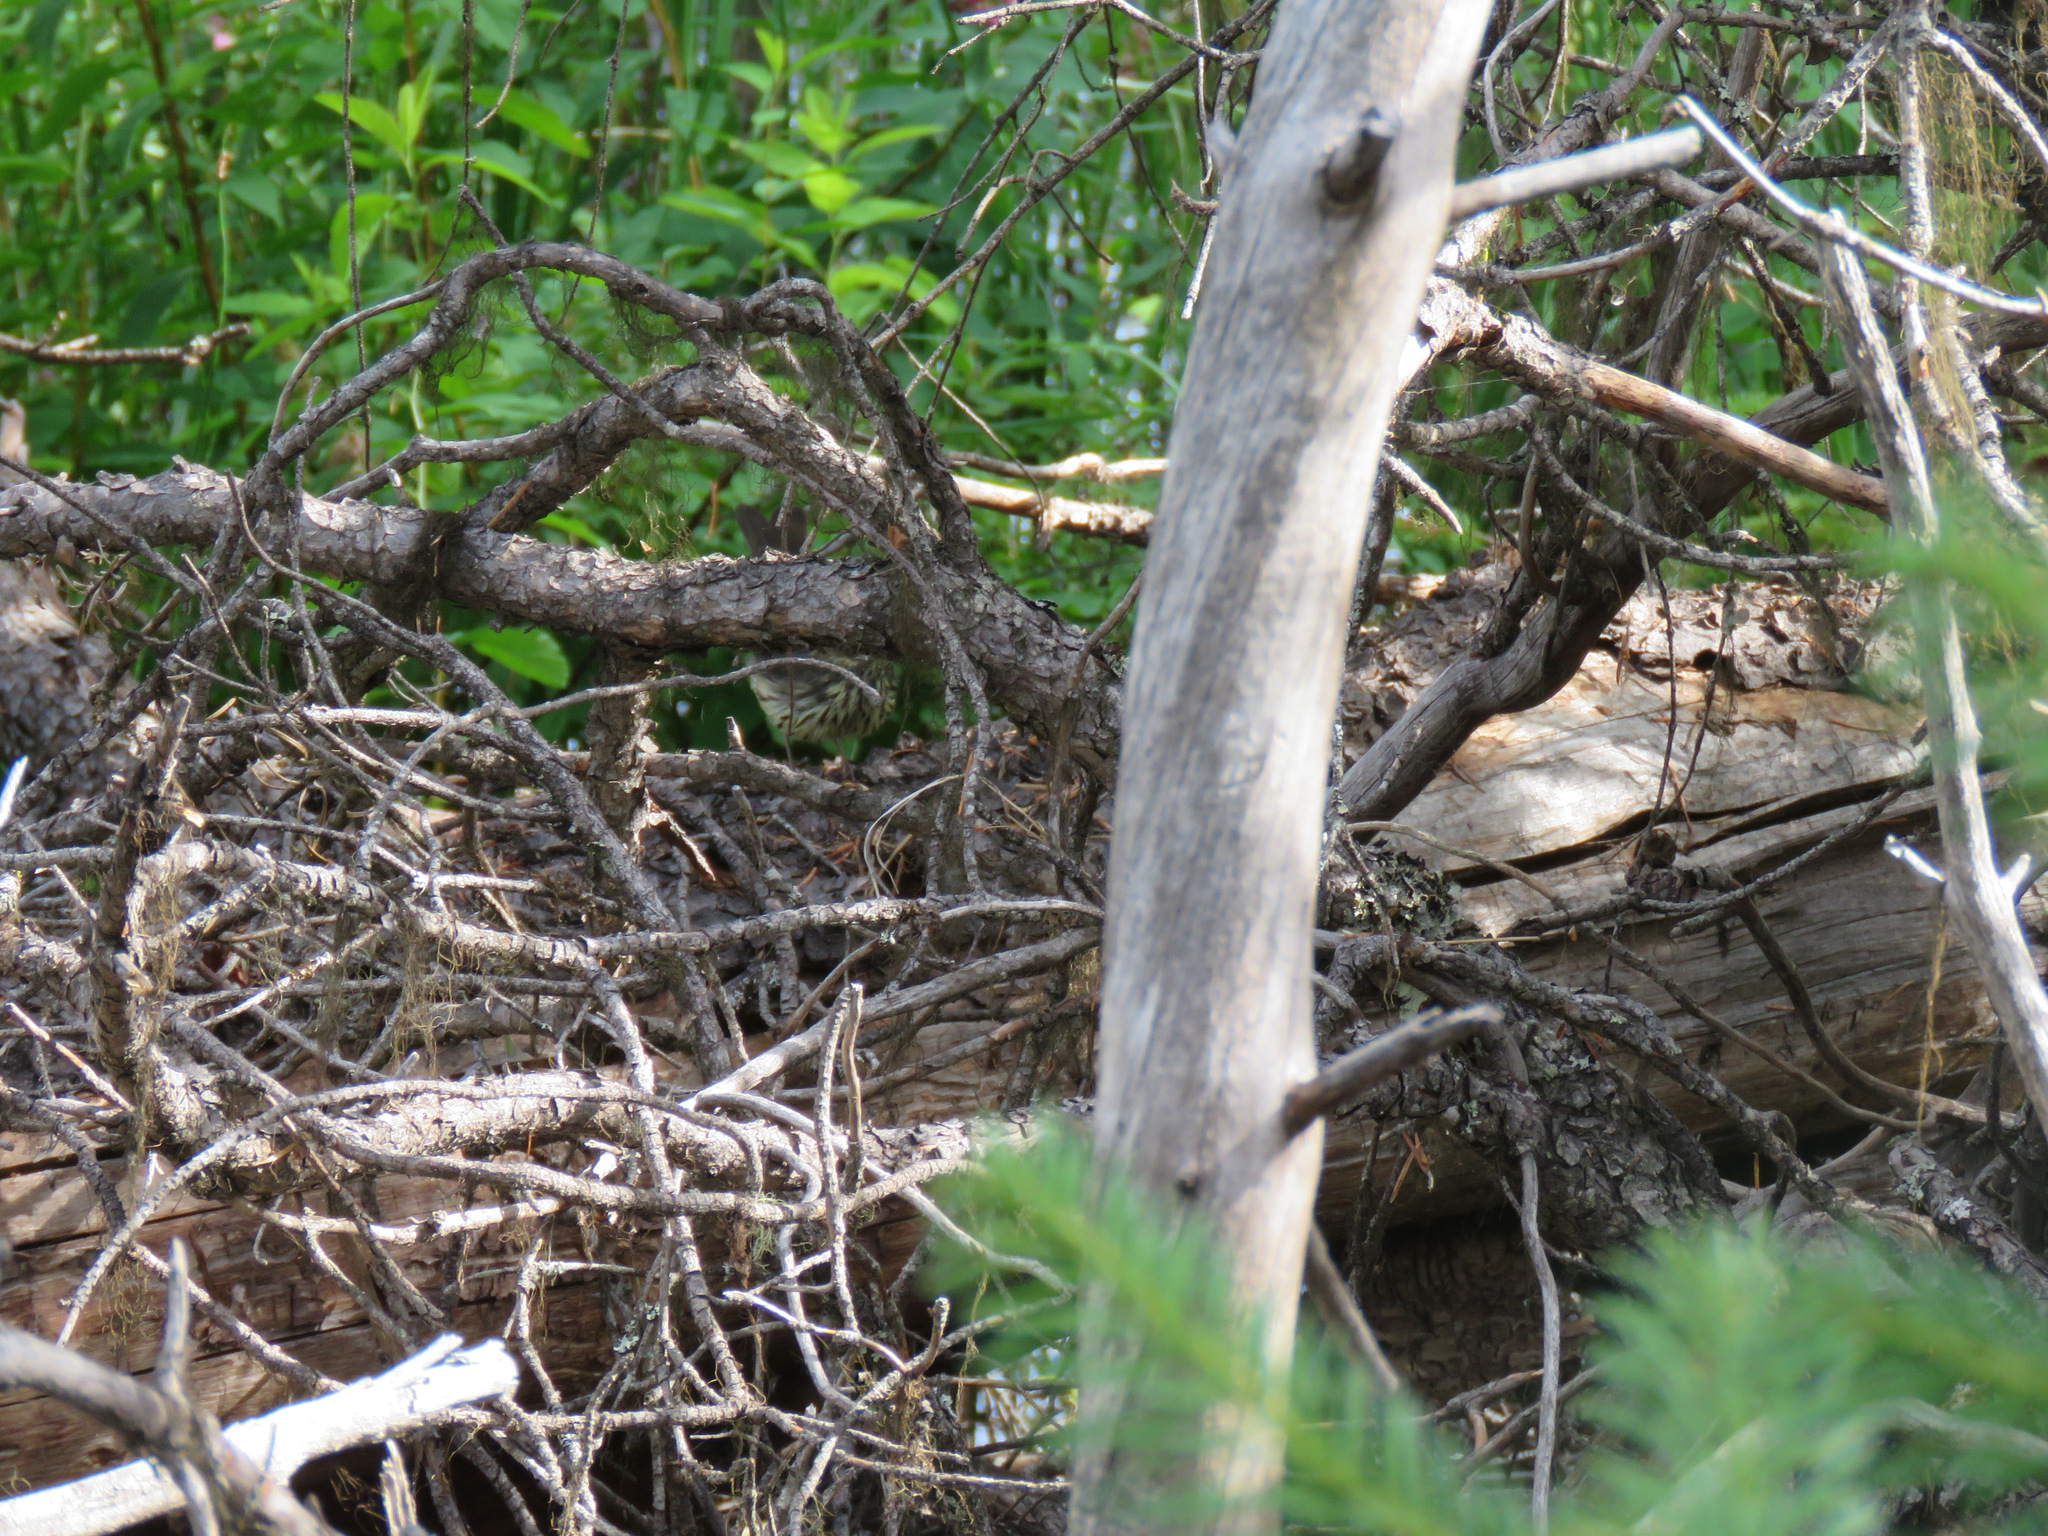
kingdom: Animalia
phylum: Chordata
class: Aves
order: Passeriformes
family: Parulidae
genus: Parkesia
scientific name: Parkesia noveboracensis
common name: Northern waterthrush
